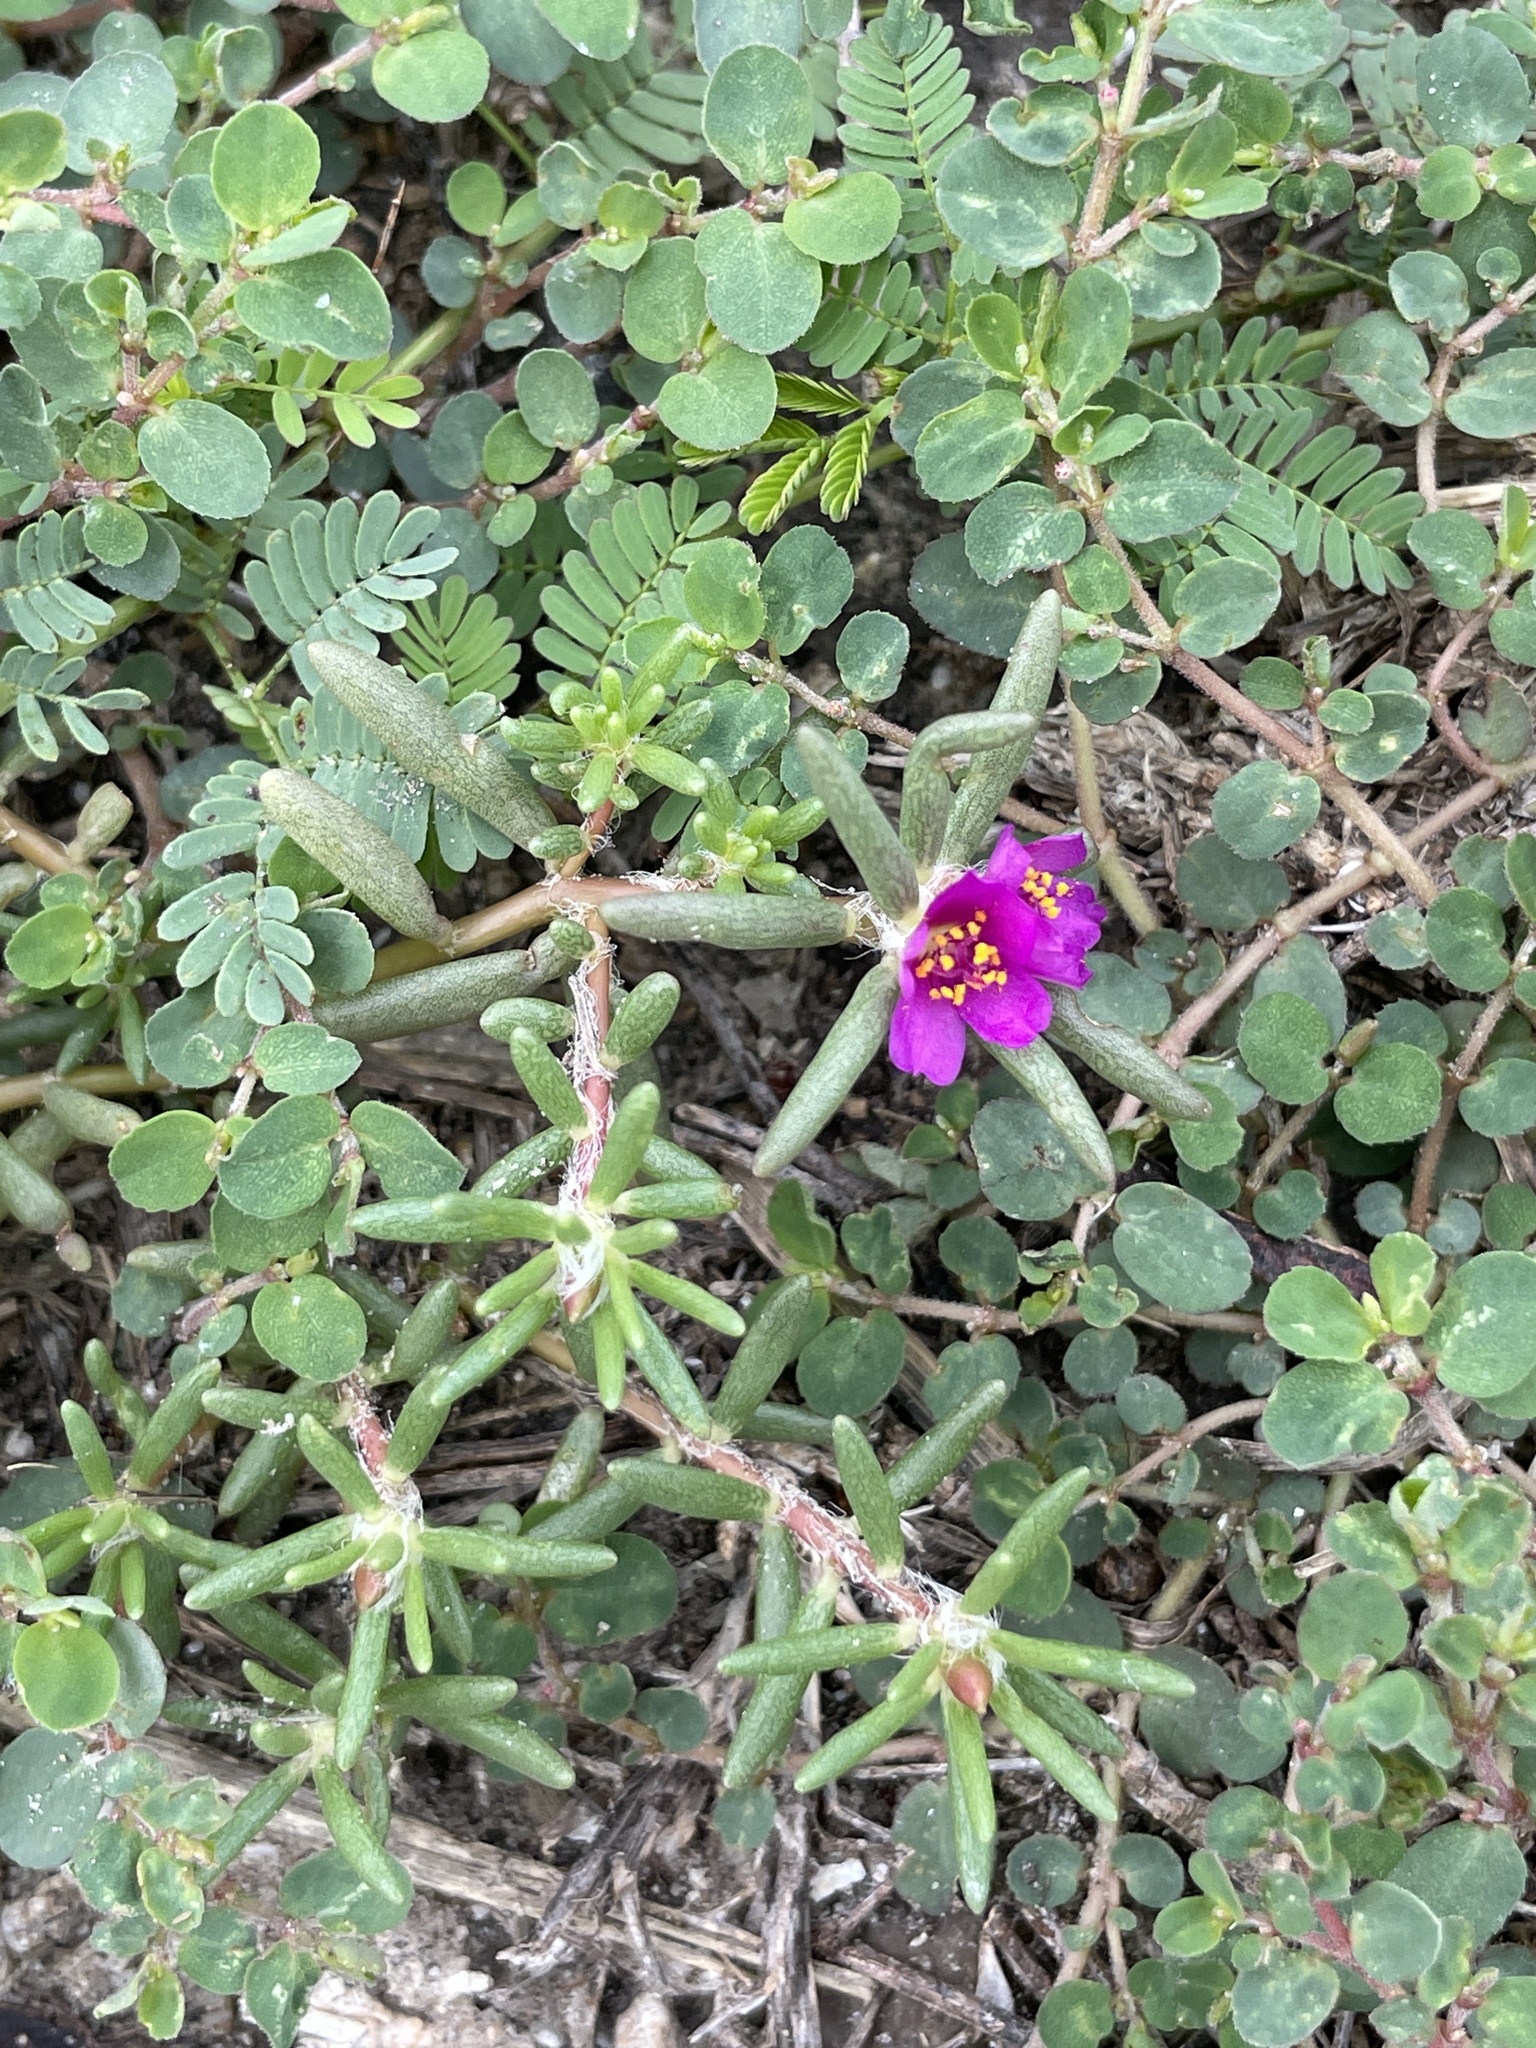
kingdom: Plantae
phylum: Tracheophyta
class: Magnoliopsida
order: Caryophyllales
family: Portulacaceae
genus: Portulaca
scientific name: Portulaca pilosa
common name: Kiss me quick
